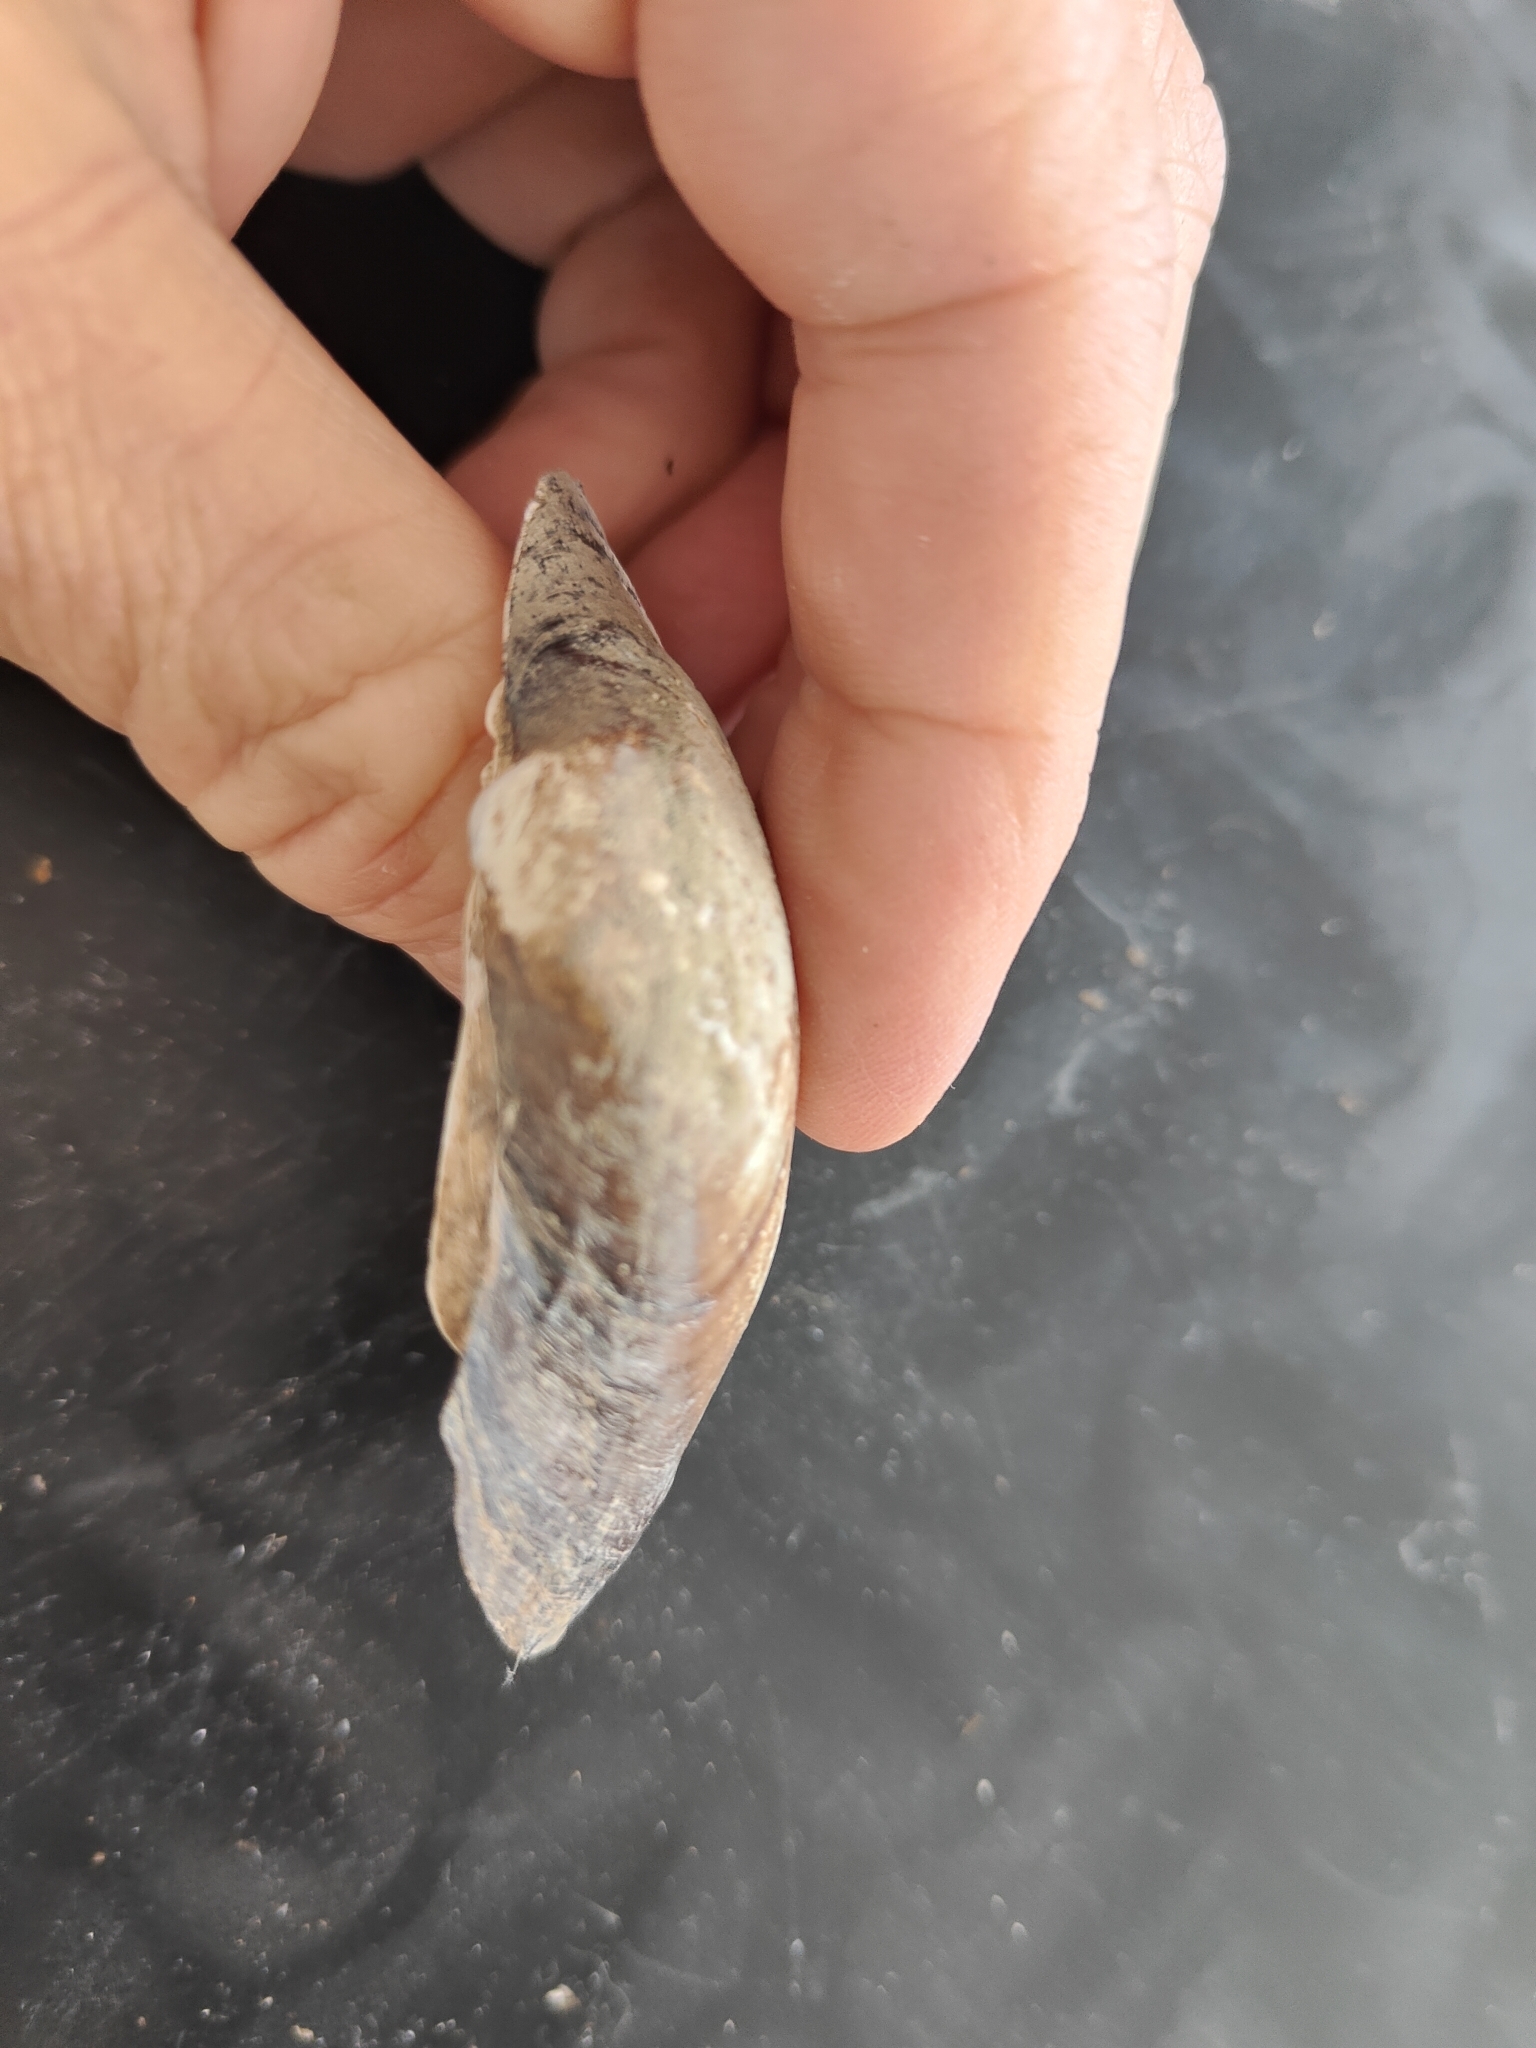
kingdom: Animalia
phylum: Mollusca
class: Bivalvia
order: Unionida
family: Unionidae
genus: Lampsilis
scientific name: Lampsilis cardium
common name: Plain pocketbook
